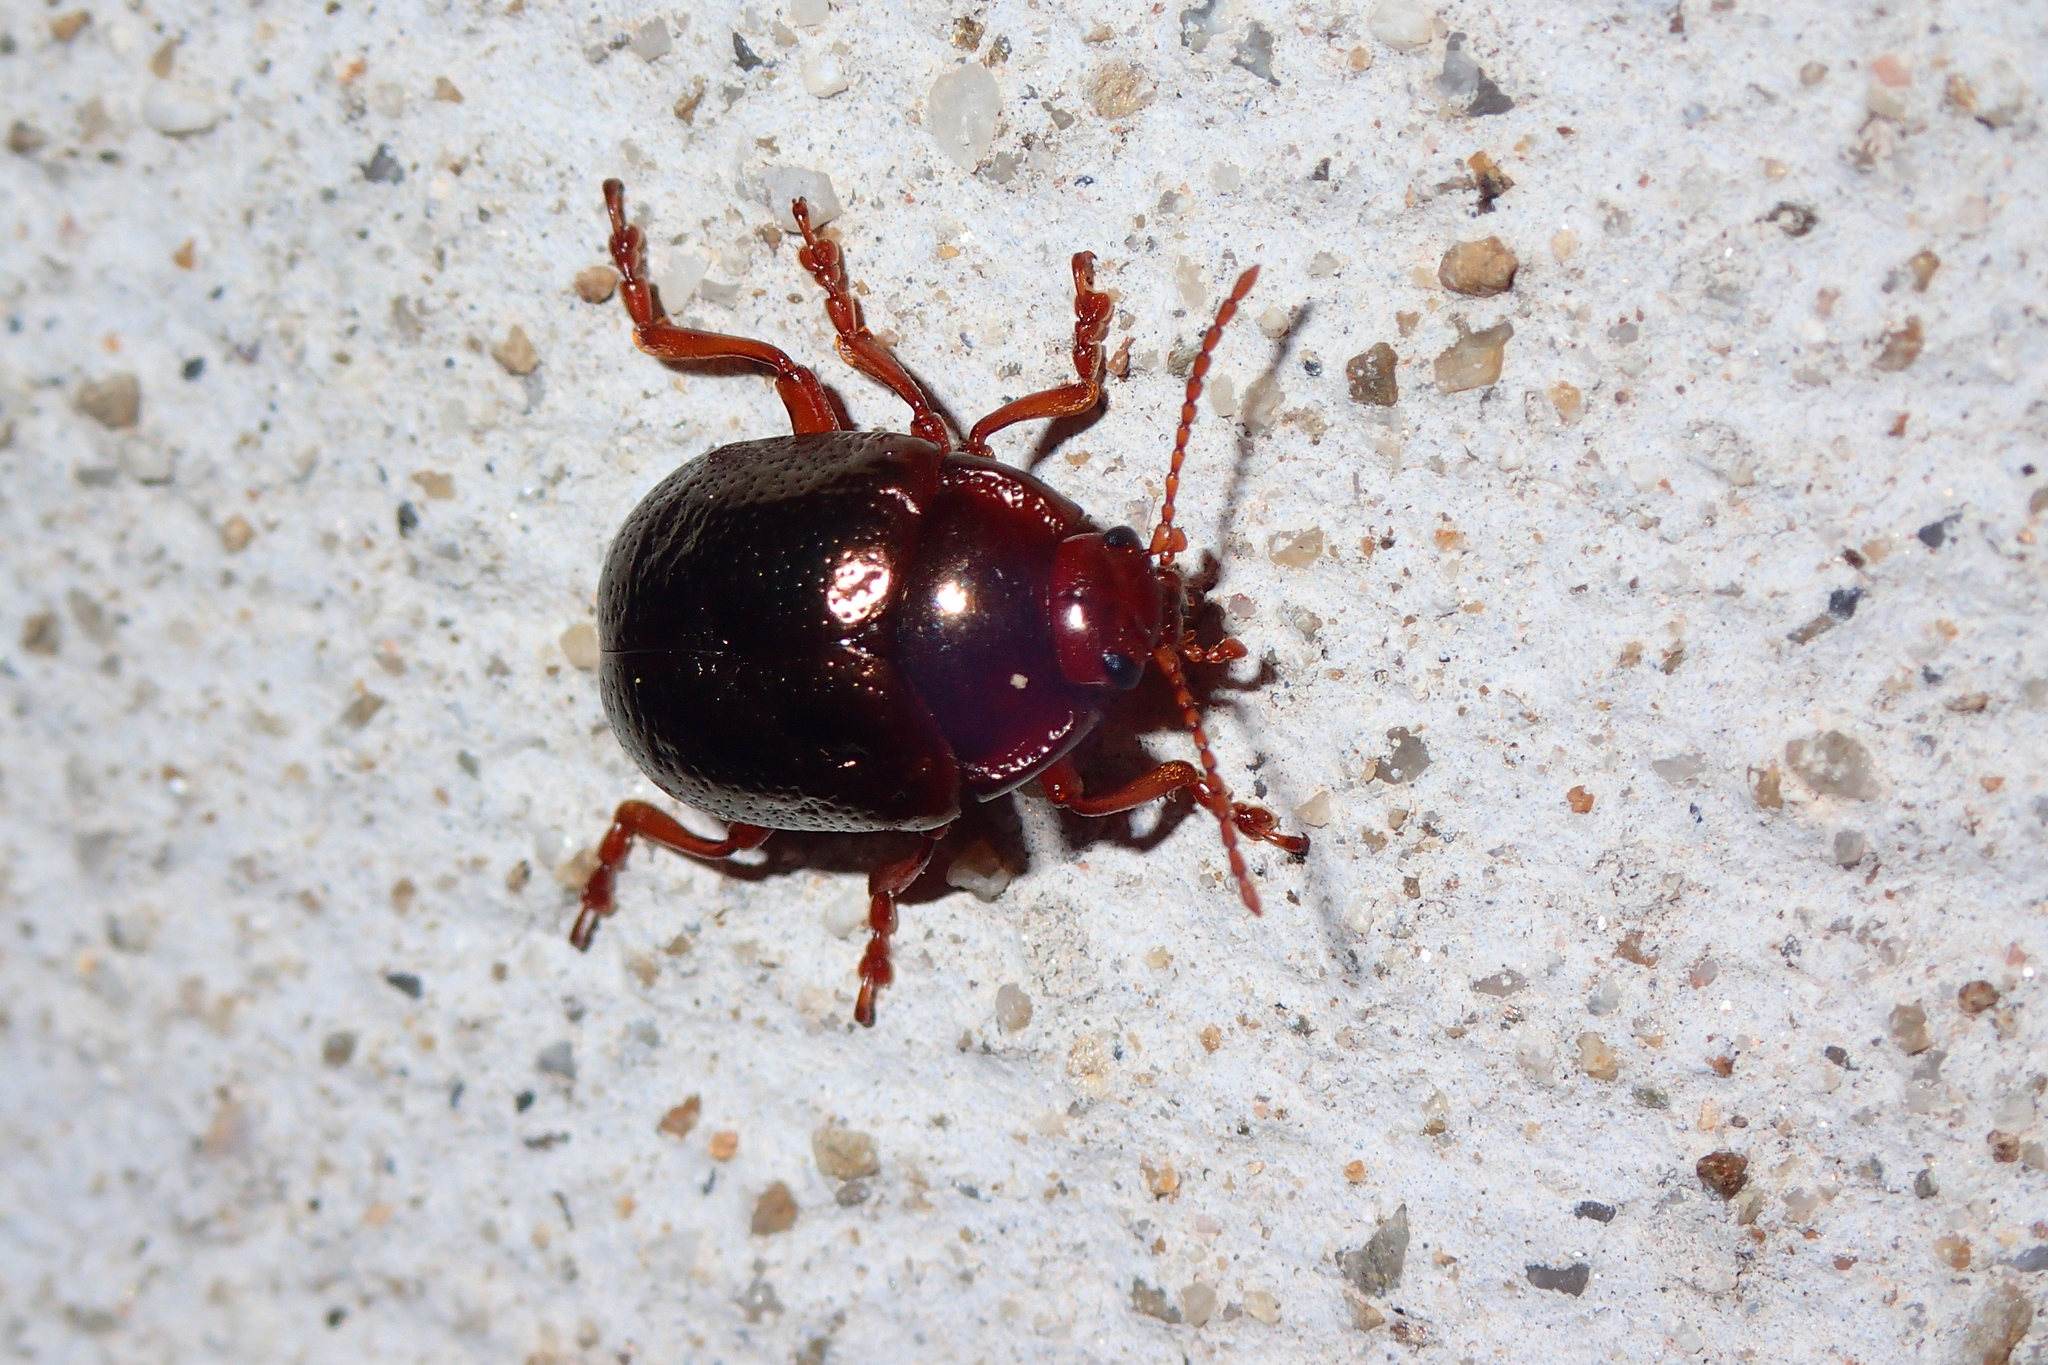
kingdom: Animalia
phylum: Arthropoda
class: Insecta
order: Coleoptera
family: Chrysomelidae
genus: Chrysolina
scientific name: Chrysolina bankii
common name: Leaf beetle
